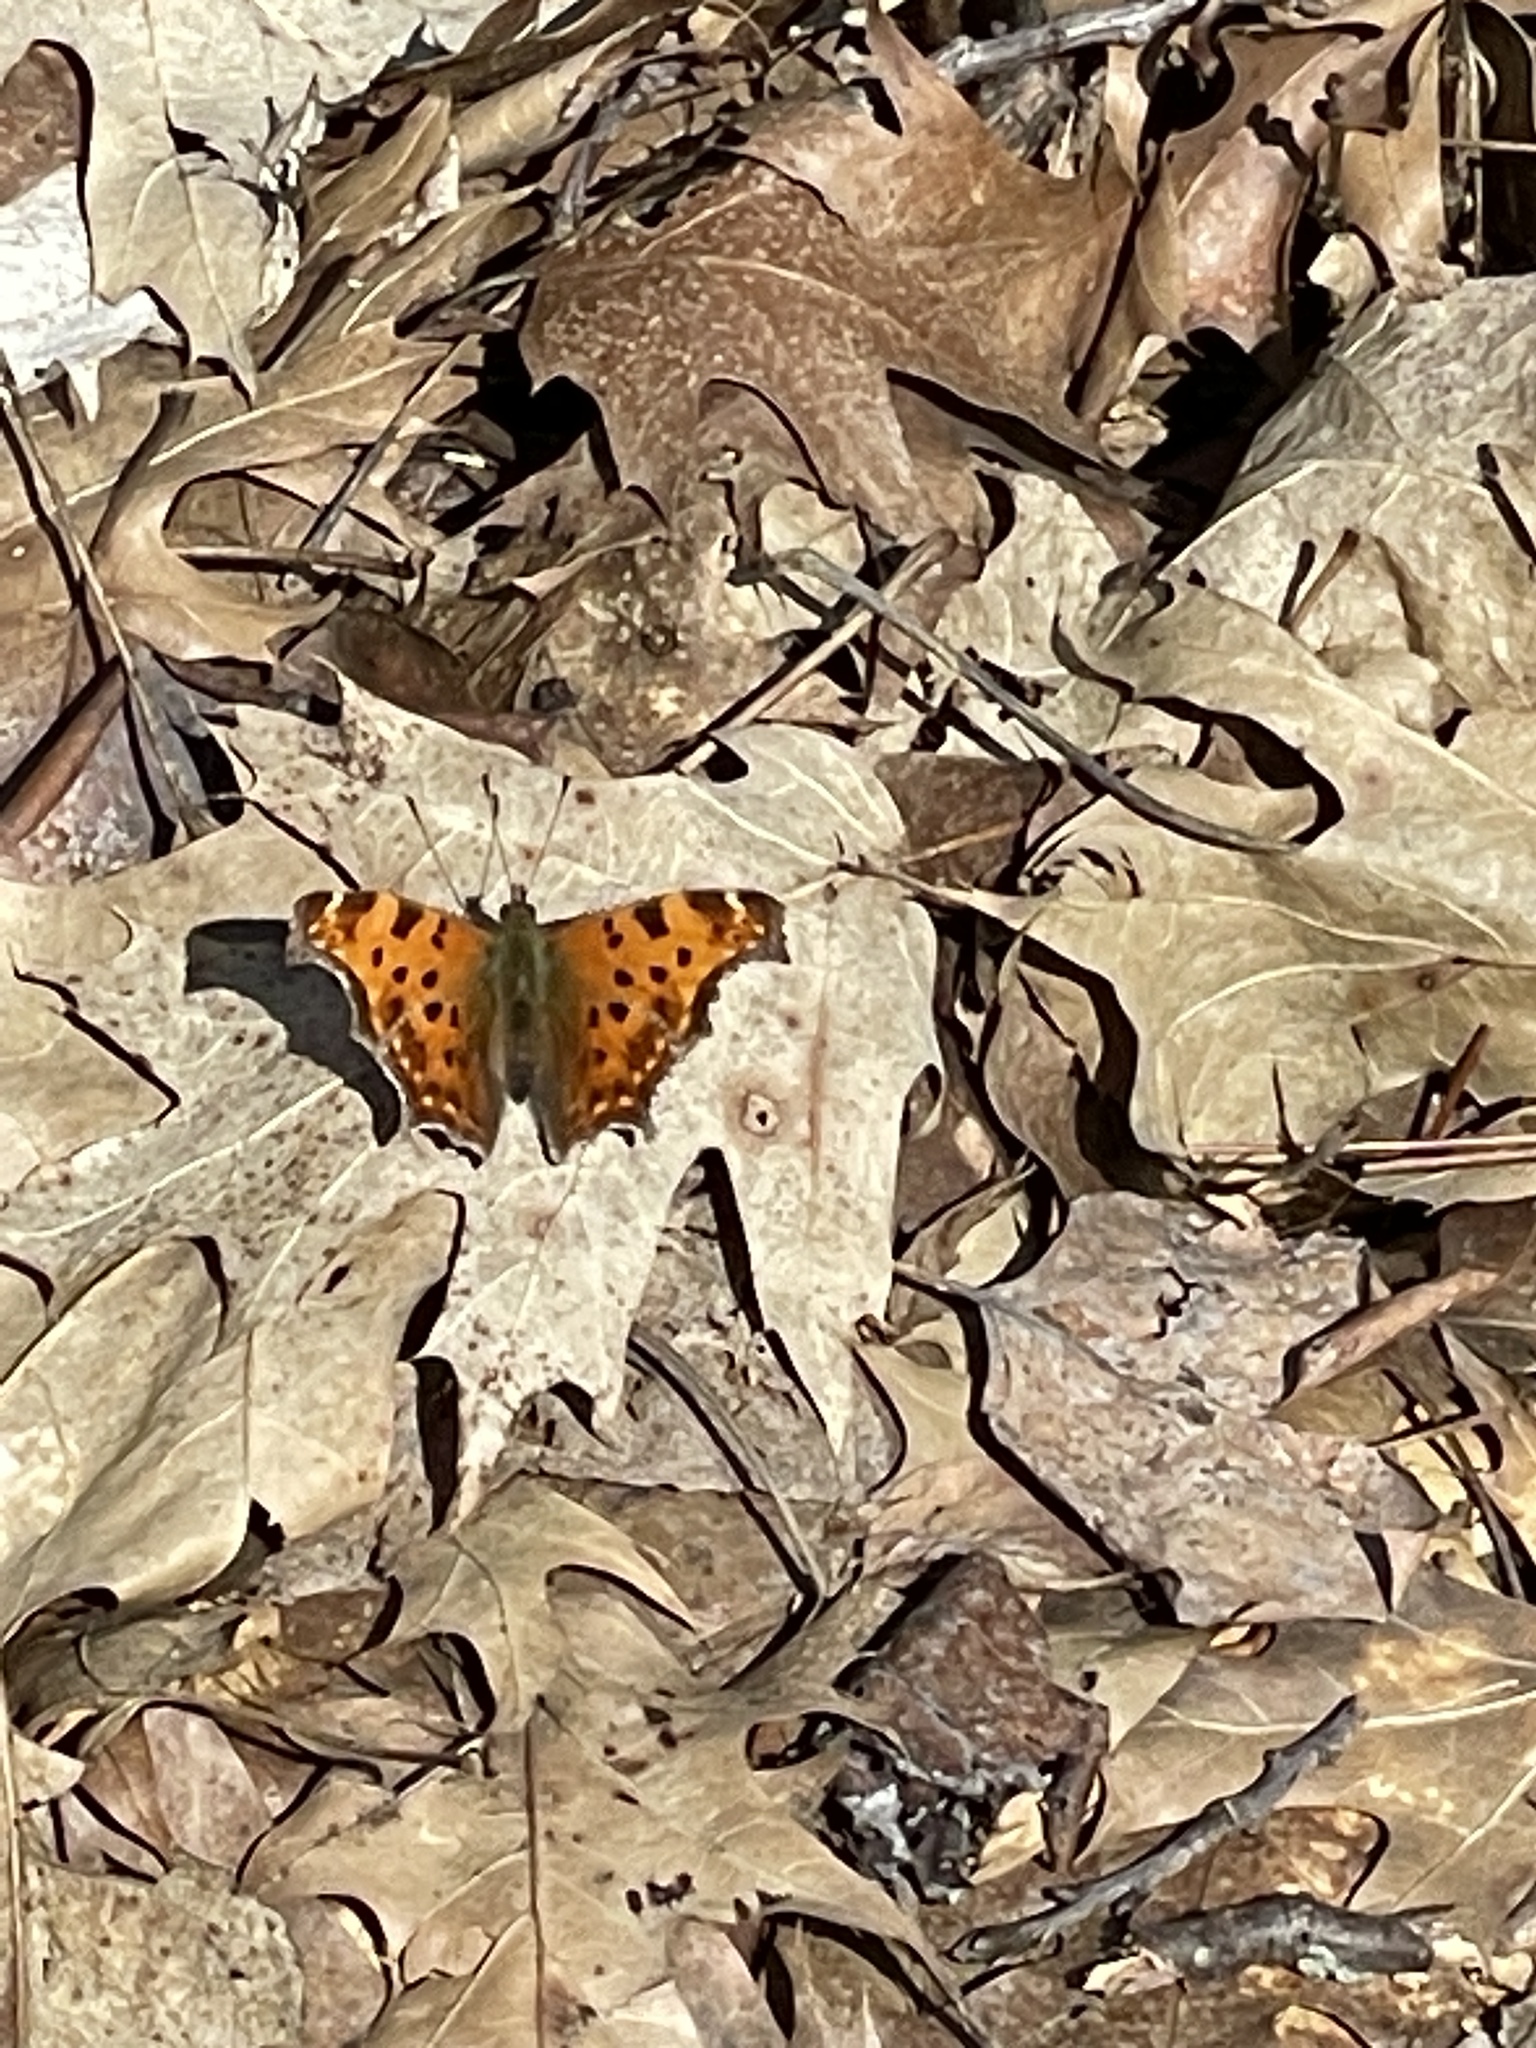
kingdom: Animalia
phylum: Arthropoda
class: Insecta
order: Lepidoptera
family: Nymphalidae
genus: Polygonia
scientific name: Polygonia comma
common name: Eastern comma
